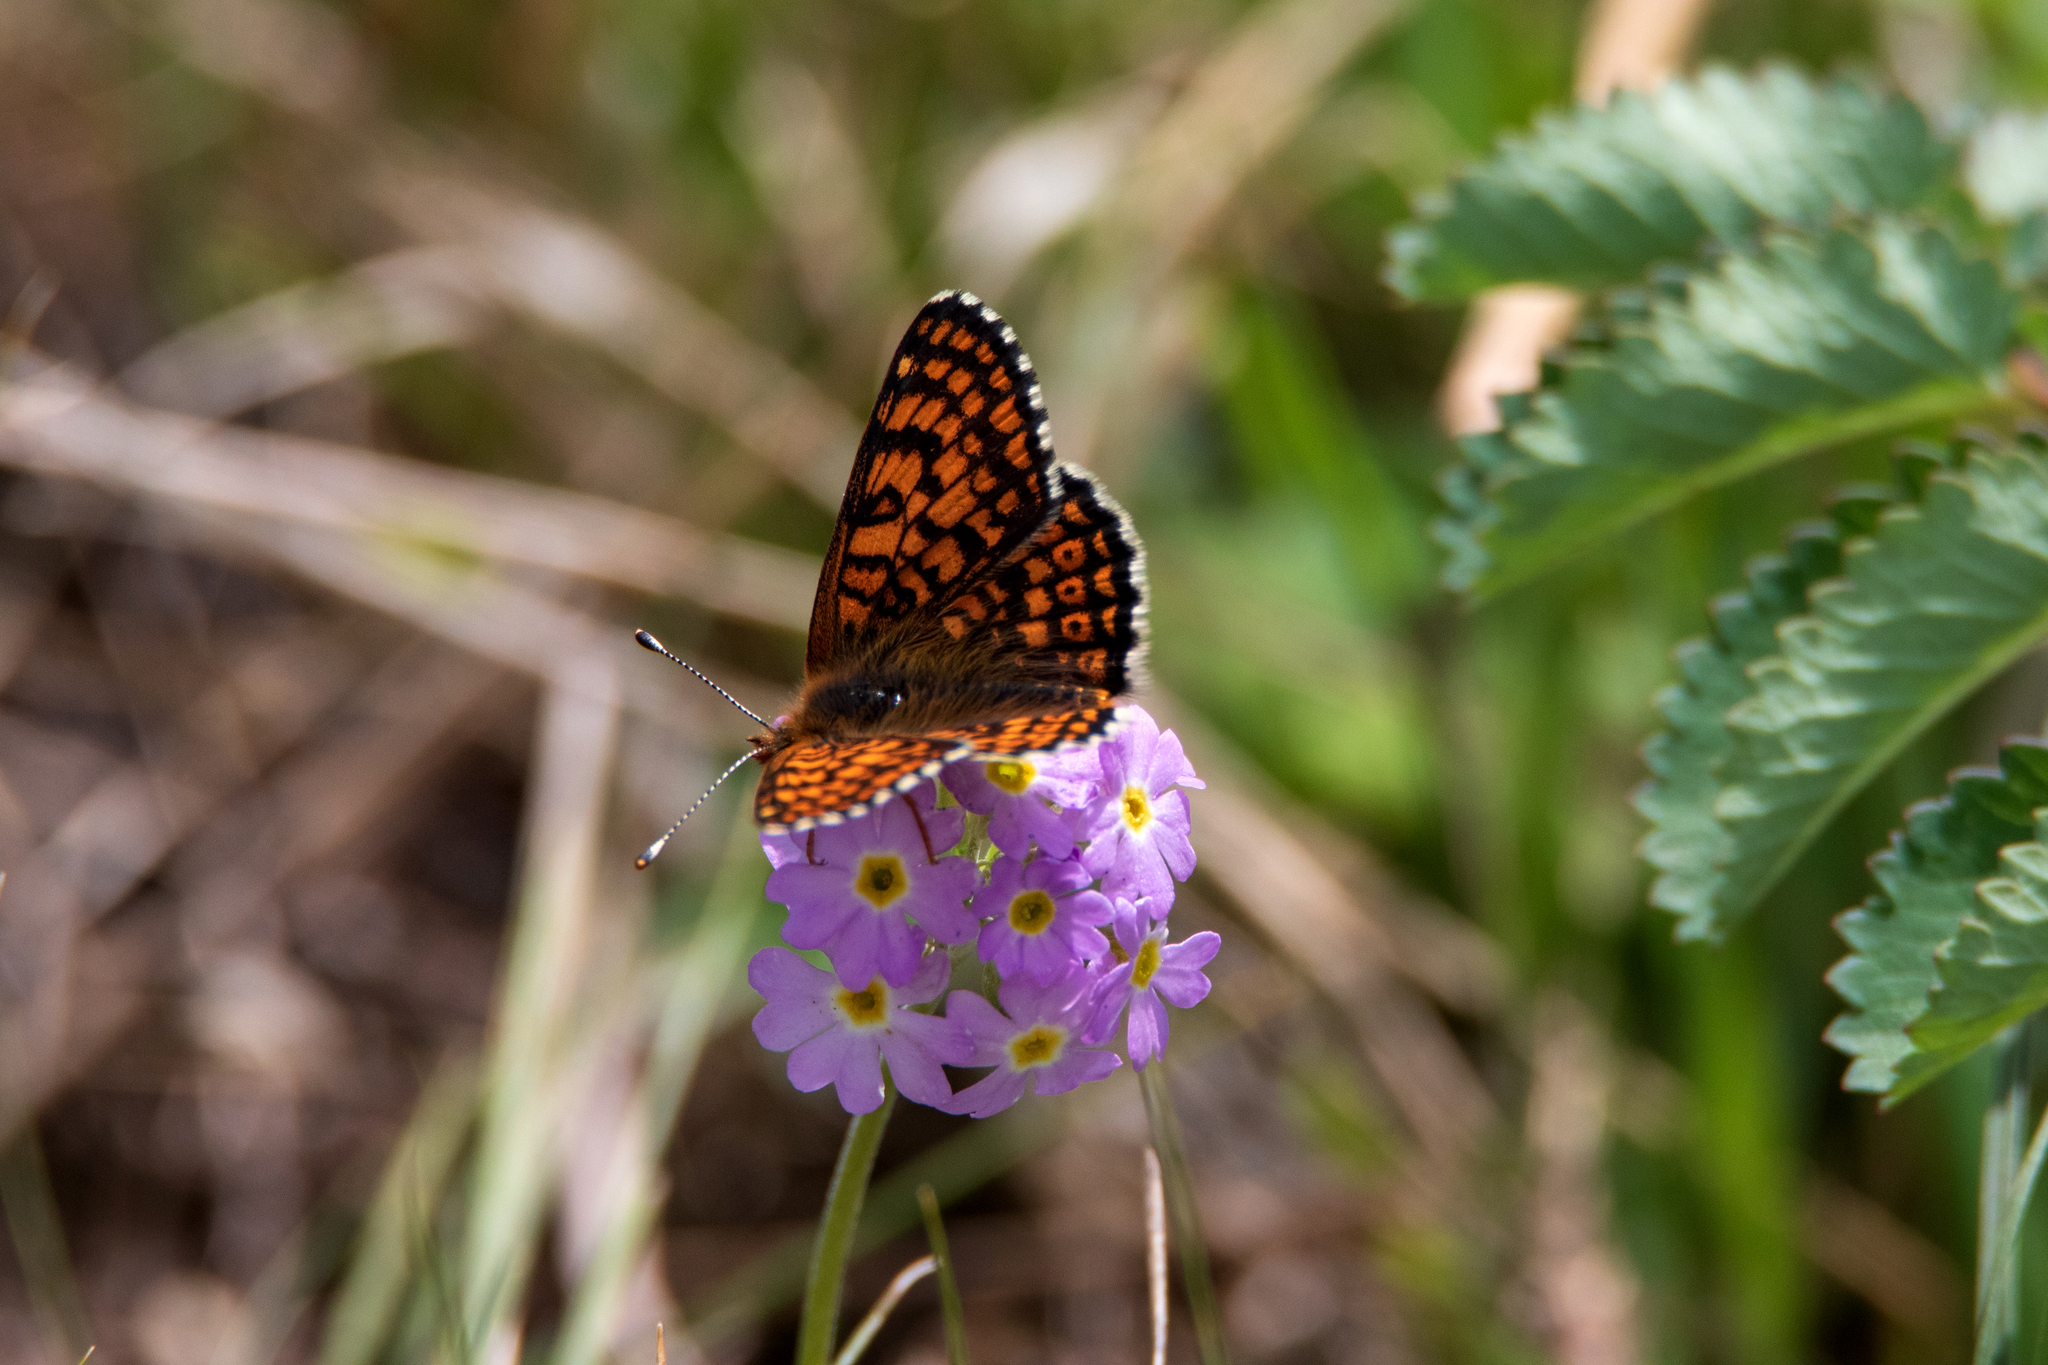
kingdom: Animalia
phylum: Arthropoda
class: Insecta
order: Lepidoptera
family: Nymphalidae
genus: Melitaea
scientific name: Melitaea cinxia
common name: Glanville fritillary
